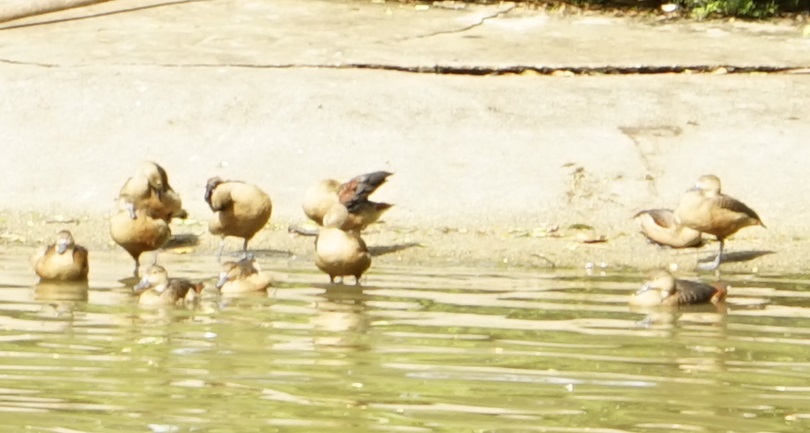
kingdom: Animalia
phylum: Chordata
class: Aves
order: Anseriformes
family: Anatidae
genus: Dendrocygna
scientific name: Dendrocygna javanica
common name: Lesser whistling-duck
